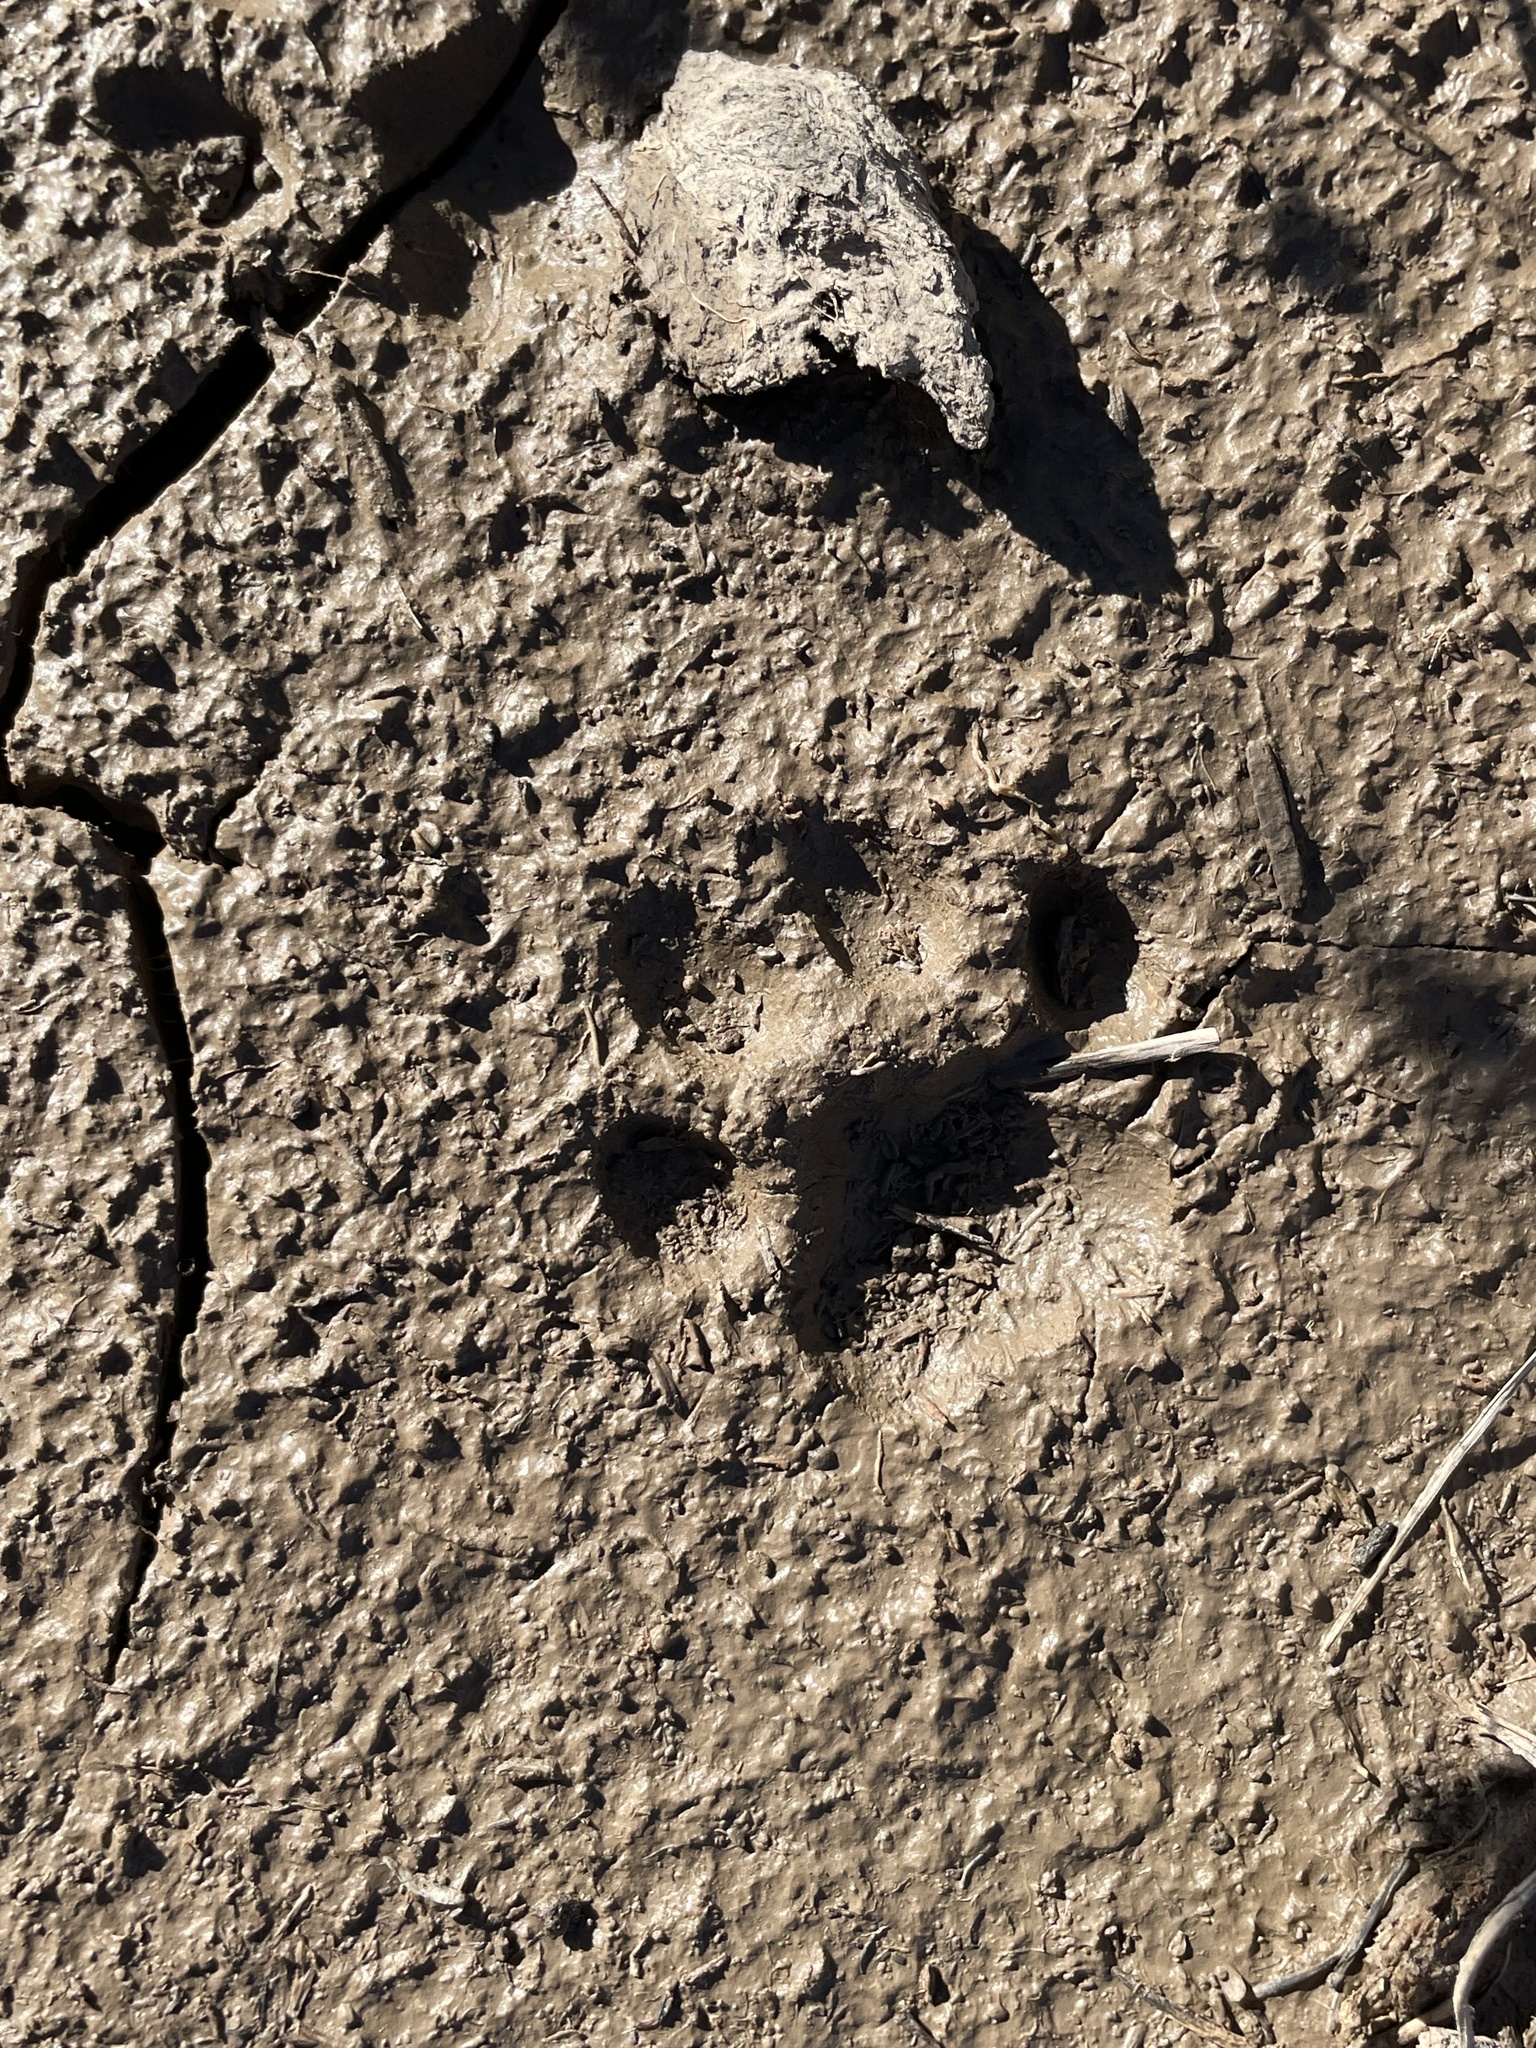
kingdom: Animalia
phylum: Chordata
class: Mammalia
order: Carnivora
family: Felidae
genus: Lynx
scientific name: Lynx rufus
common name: Bobcat
